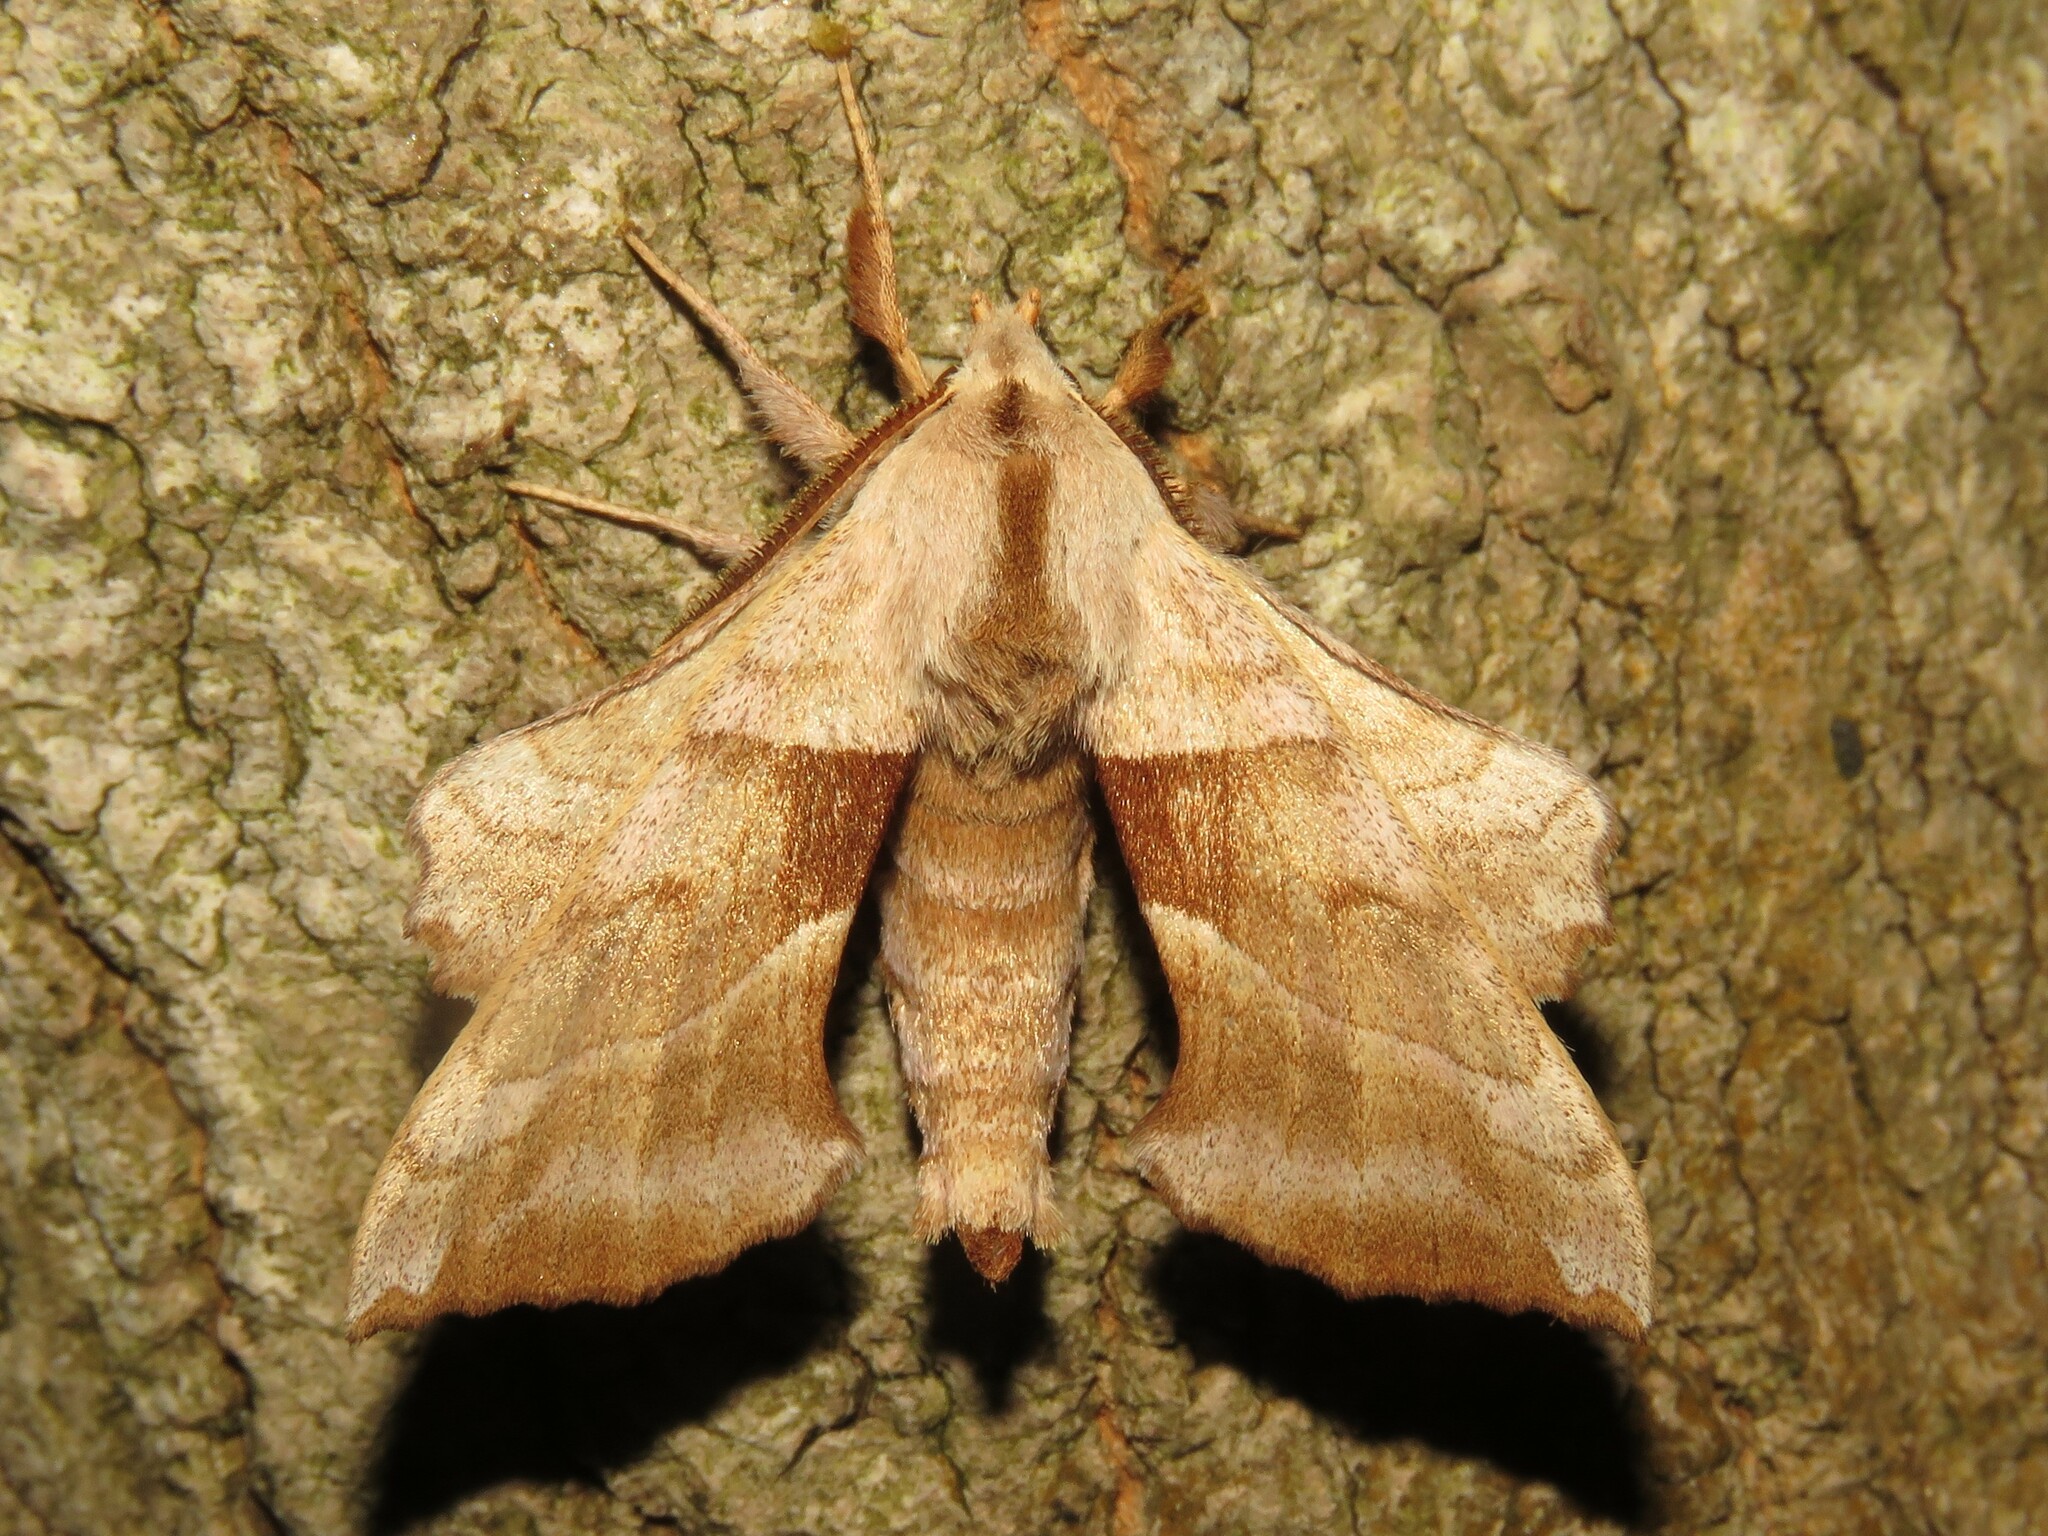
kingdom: Animalia
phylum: Arthropoda
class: Insecta
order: Lepidoptera
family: Sphingidae
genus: Amorpha
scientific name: Amorpha juglandis
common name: Walnut sphinx
